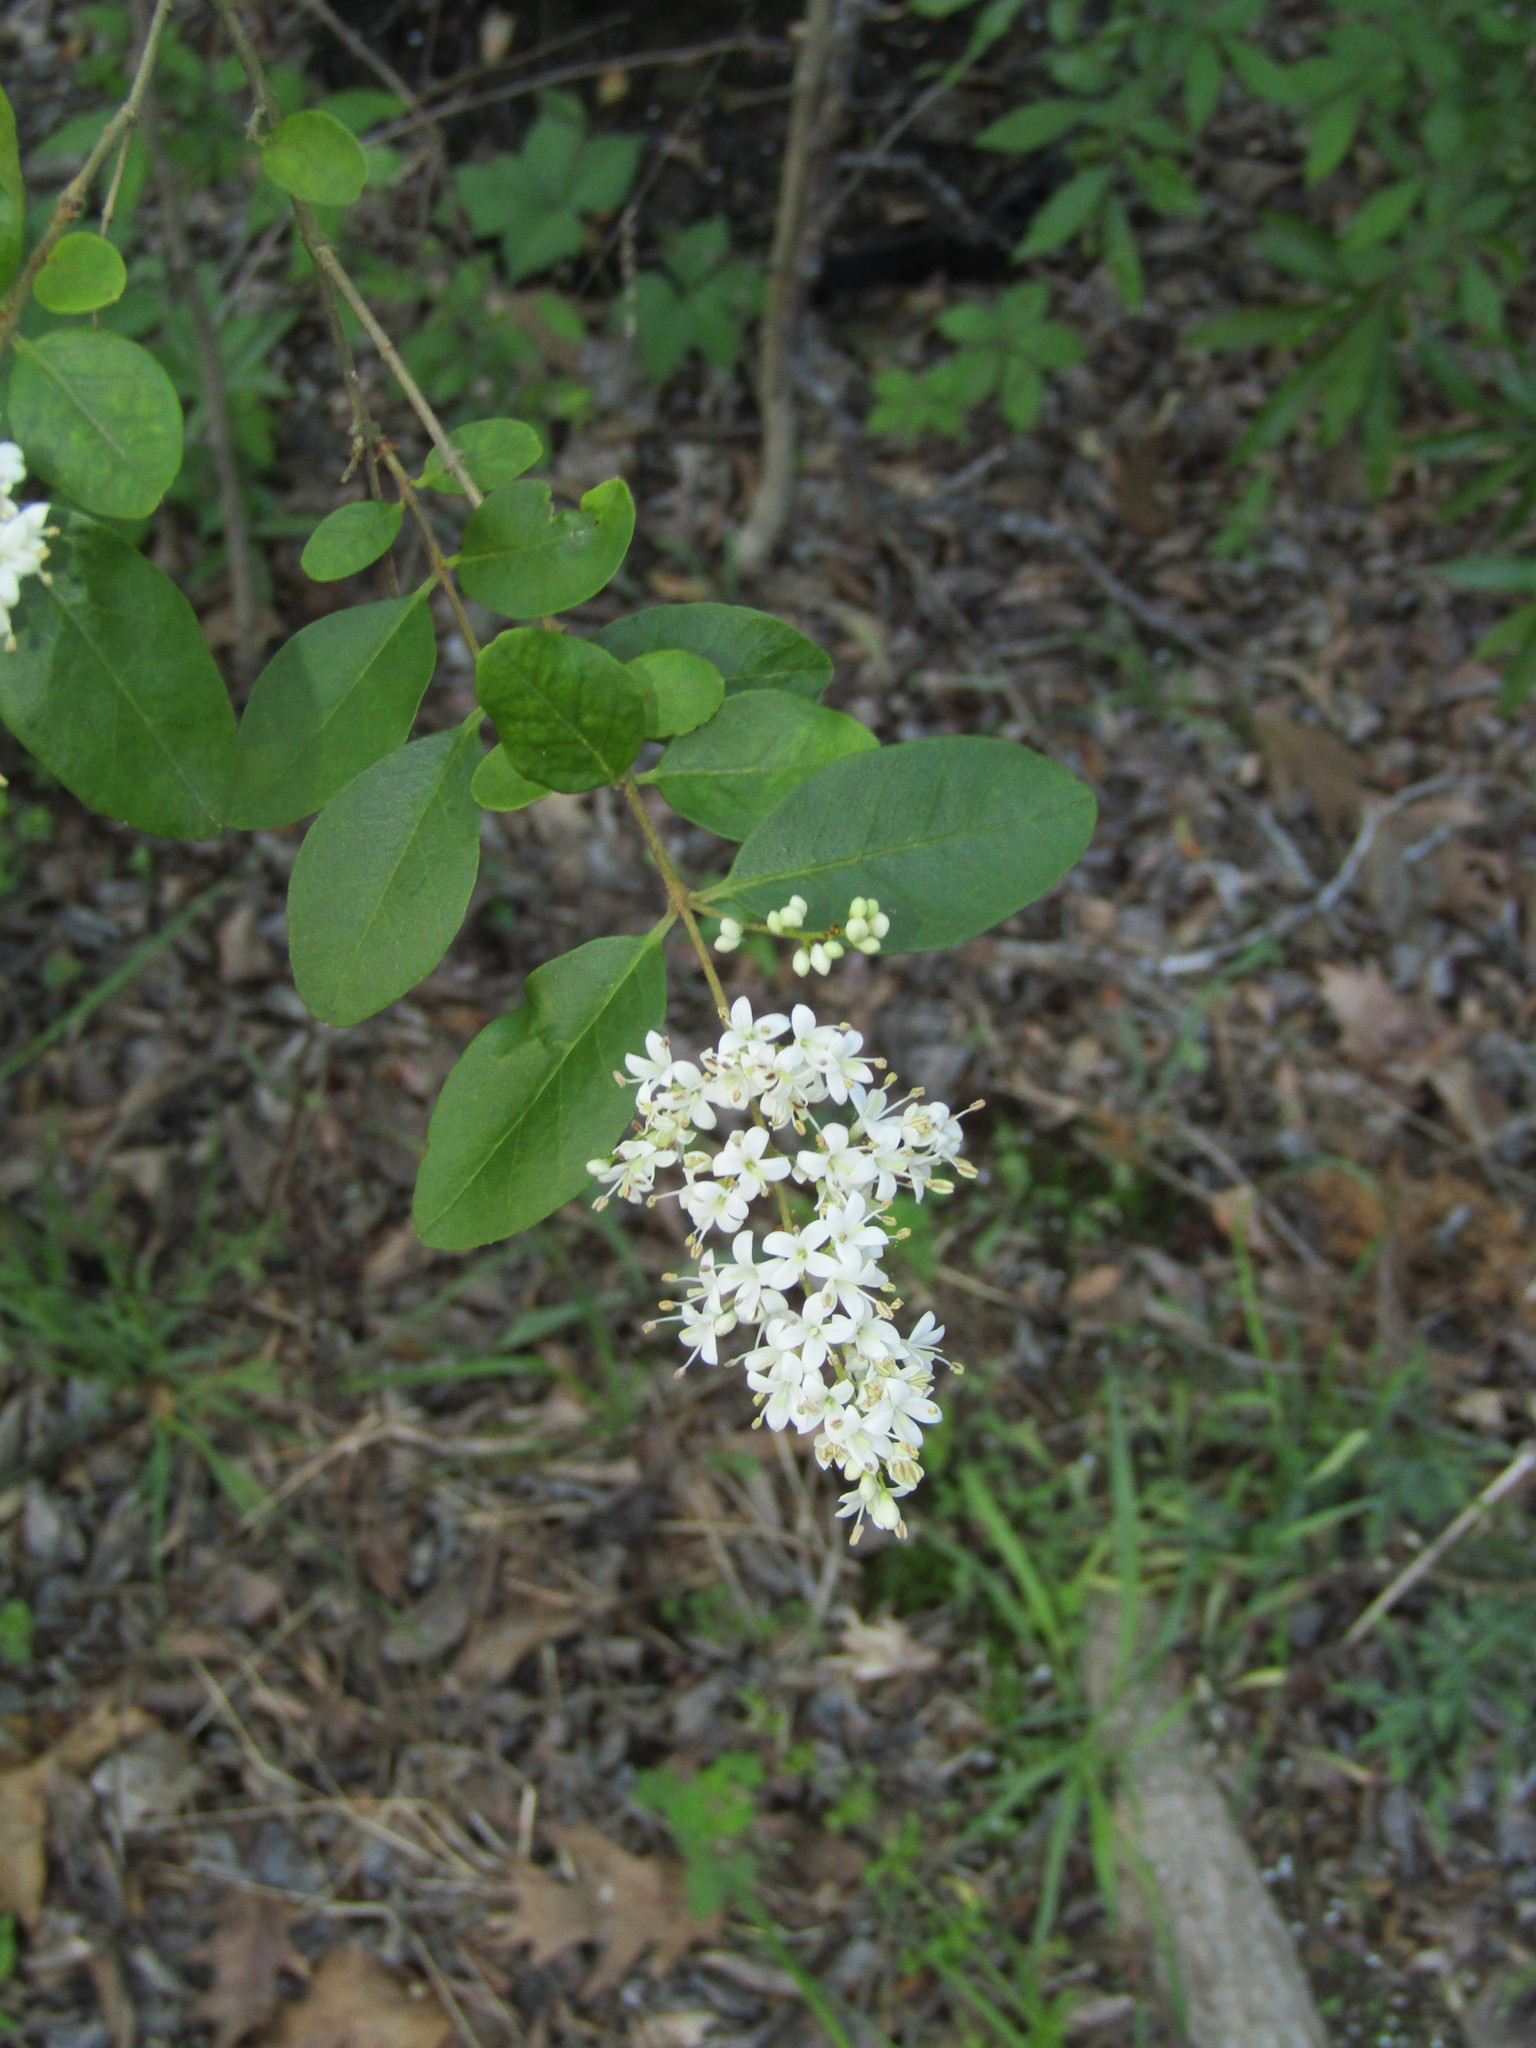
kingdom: Plantae
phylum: Tracheophyta
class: Magnoliopsida
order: Lamiales
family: Oleaceae
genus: Ligustrum
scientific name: Ligustrum sinense
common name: Chinese privet
